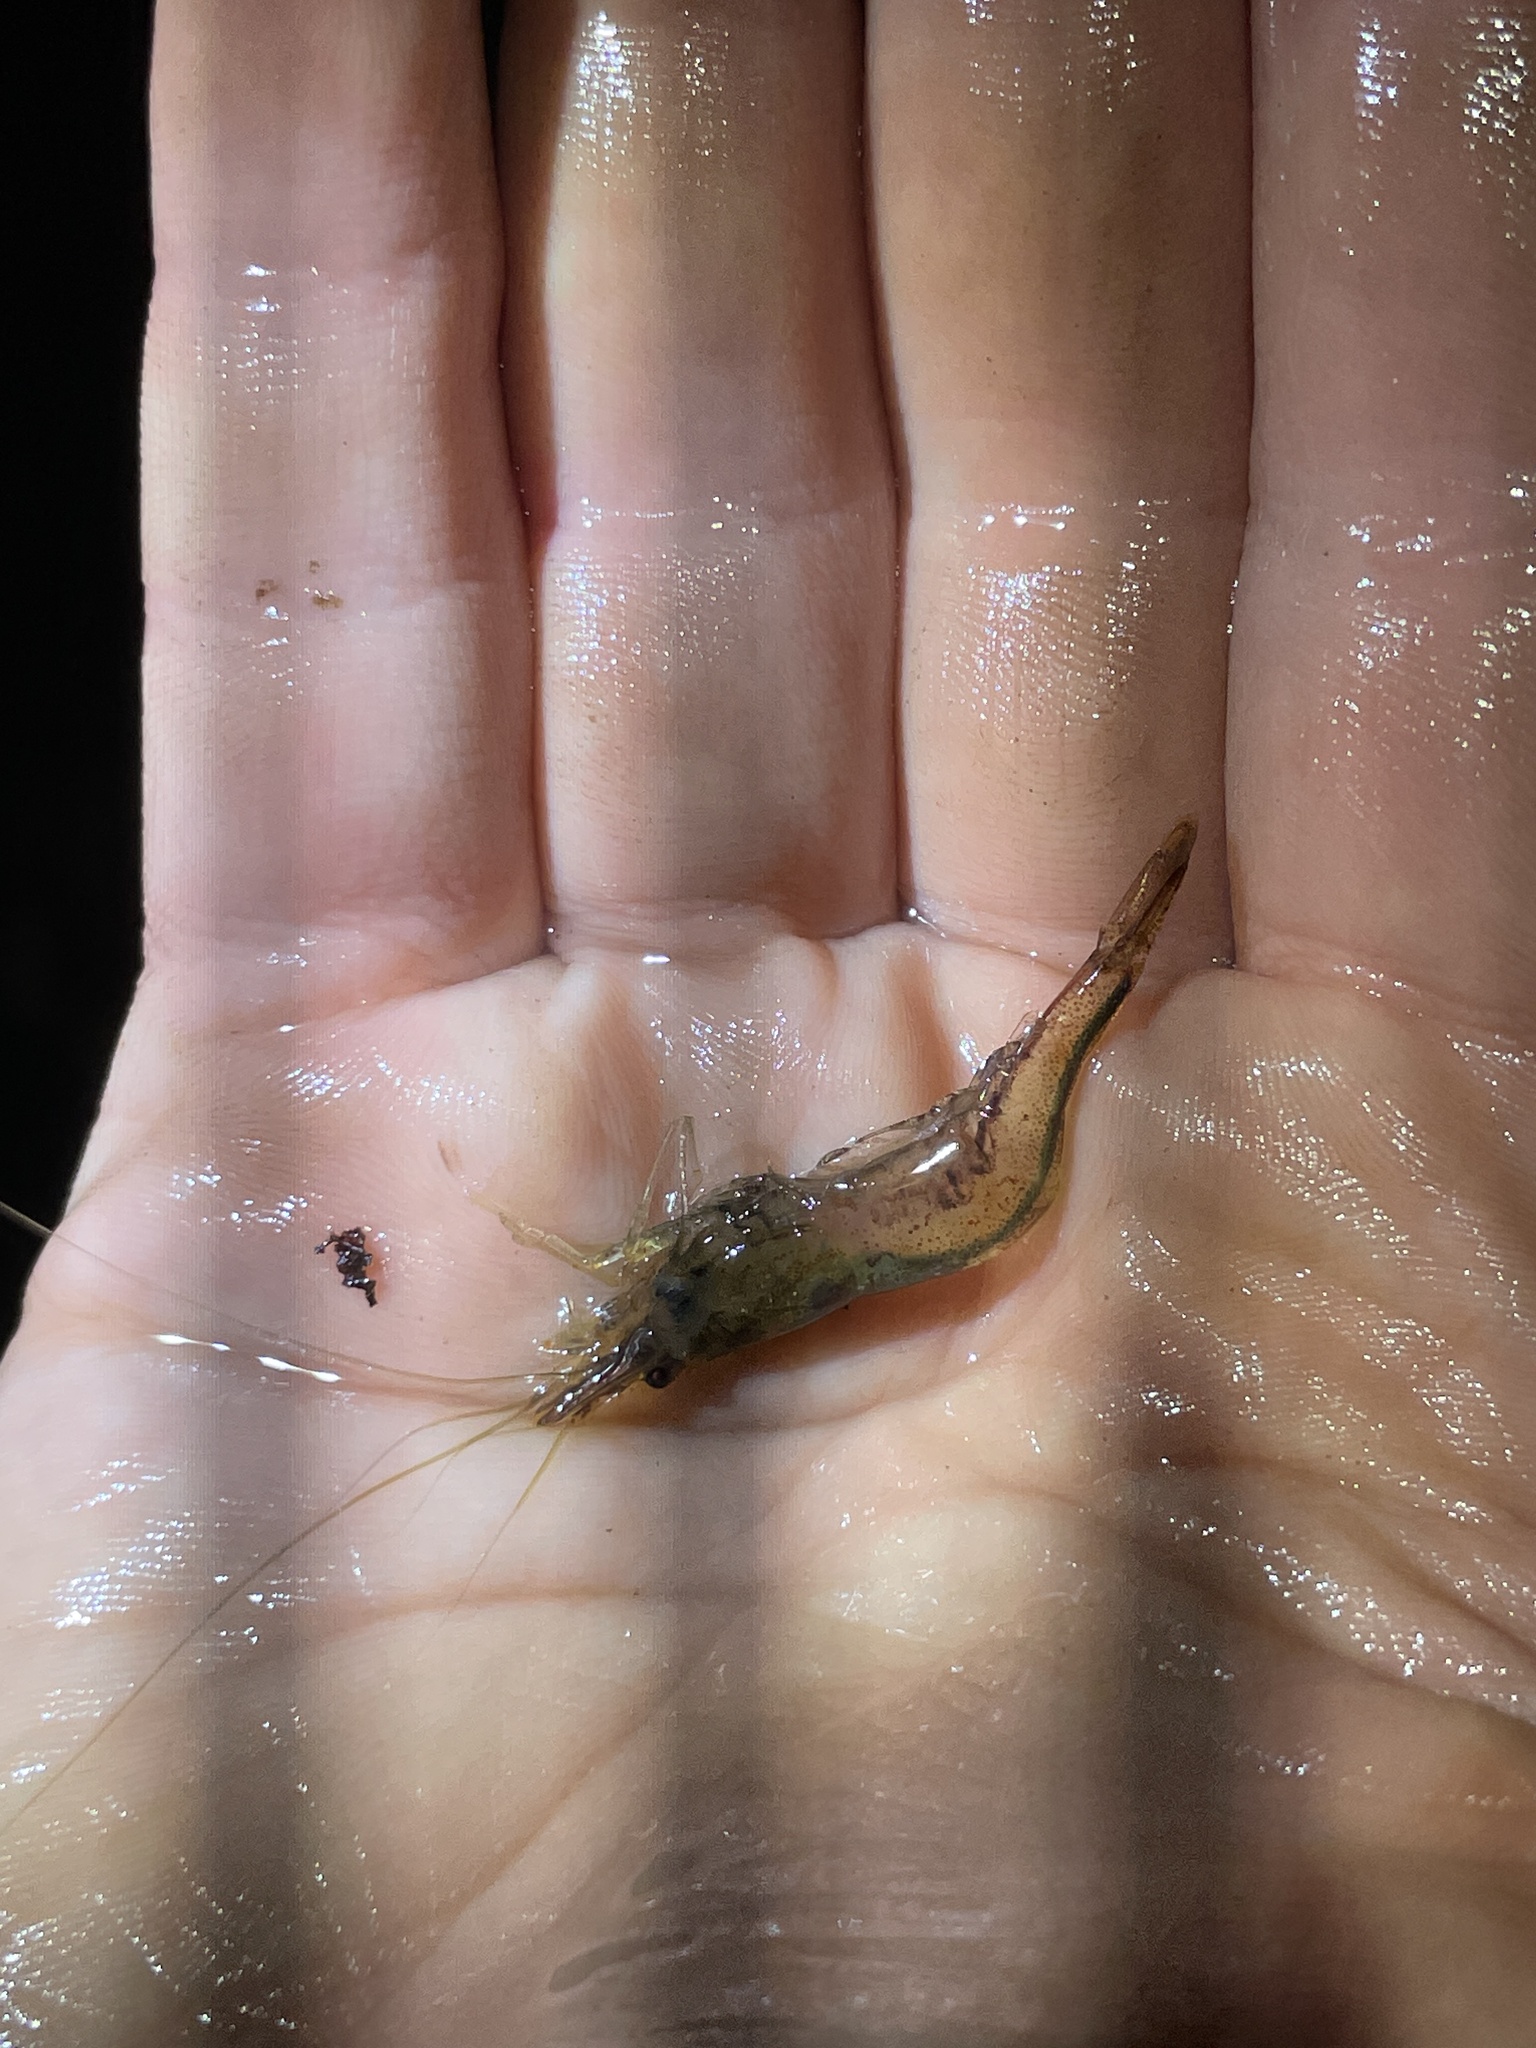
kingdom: Animalia
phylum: Arthropoda
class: Malacostraca
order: Decapoda
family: Atyidae
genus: Paratya
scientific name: Paratya curvirostris
